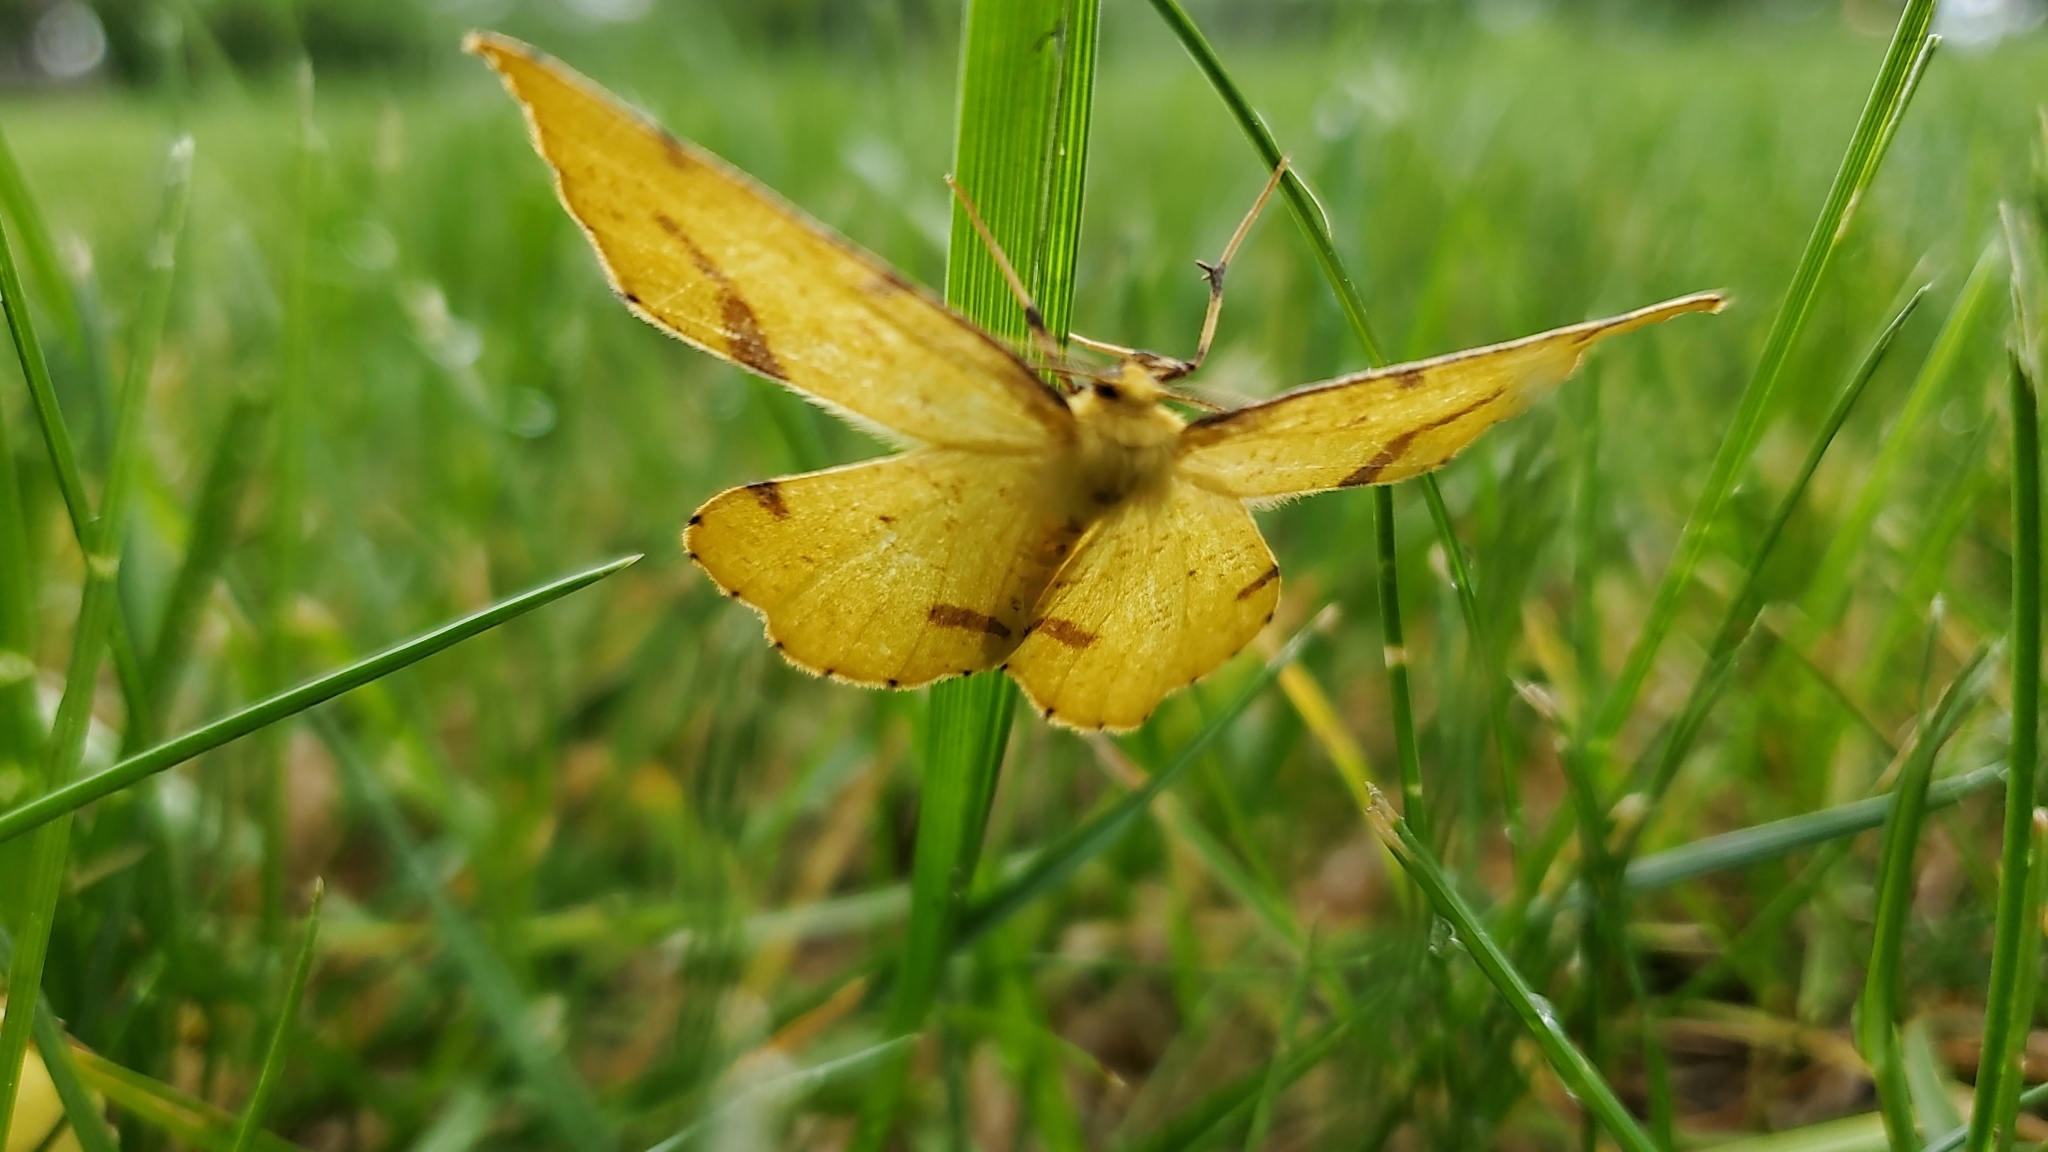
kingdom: Animalia
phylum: Arthropoda
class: Insecta
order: Lepidoptera
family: Geometridae
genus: Xanthotype
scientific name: Xanthotype
